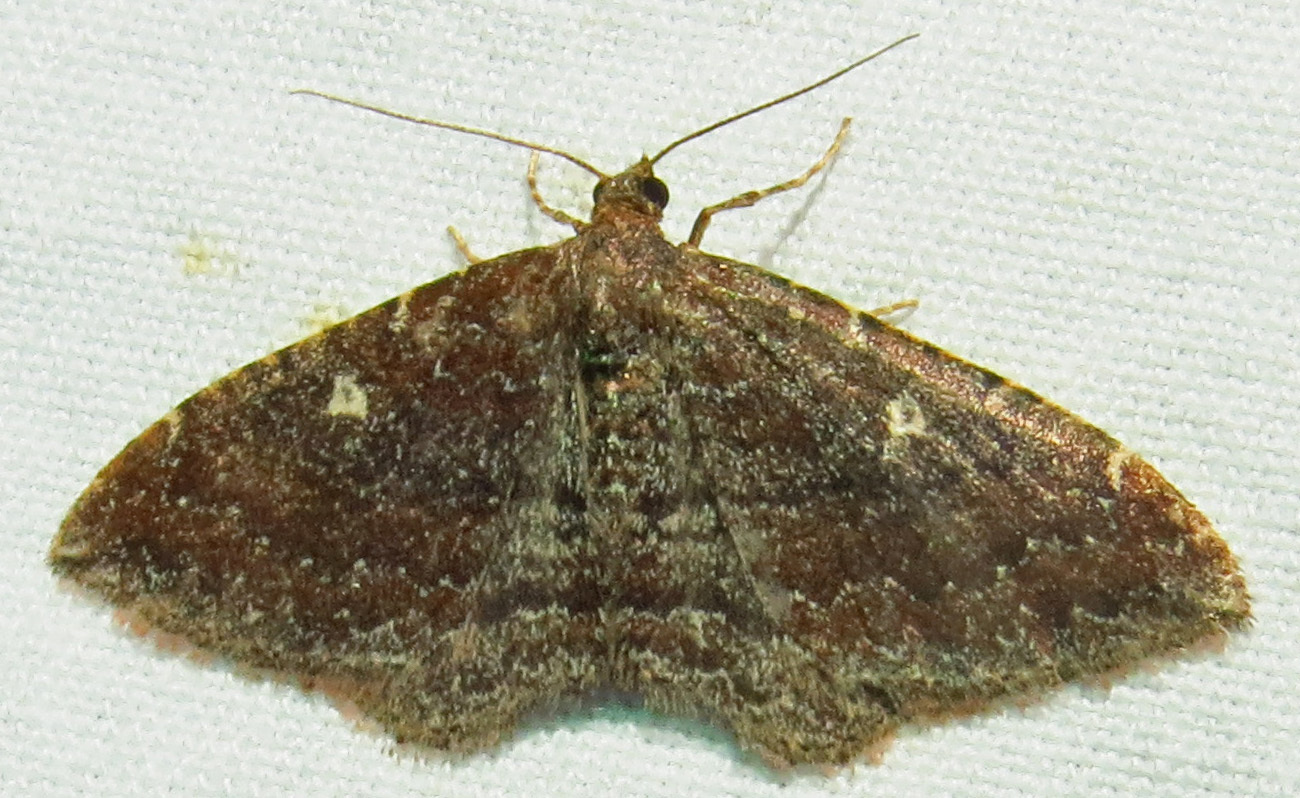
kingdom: Animalia
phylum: Arthropoda
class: Insecta
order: Lepidoptera
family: Geometridae
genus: Orthonama
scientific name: Orthonama obstipata
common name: The gem
